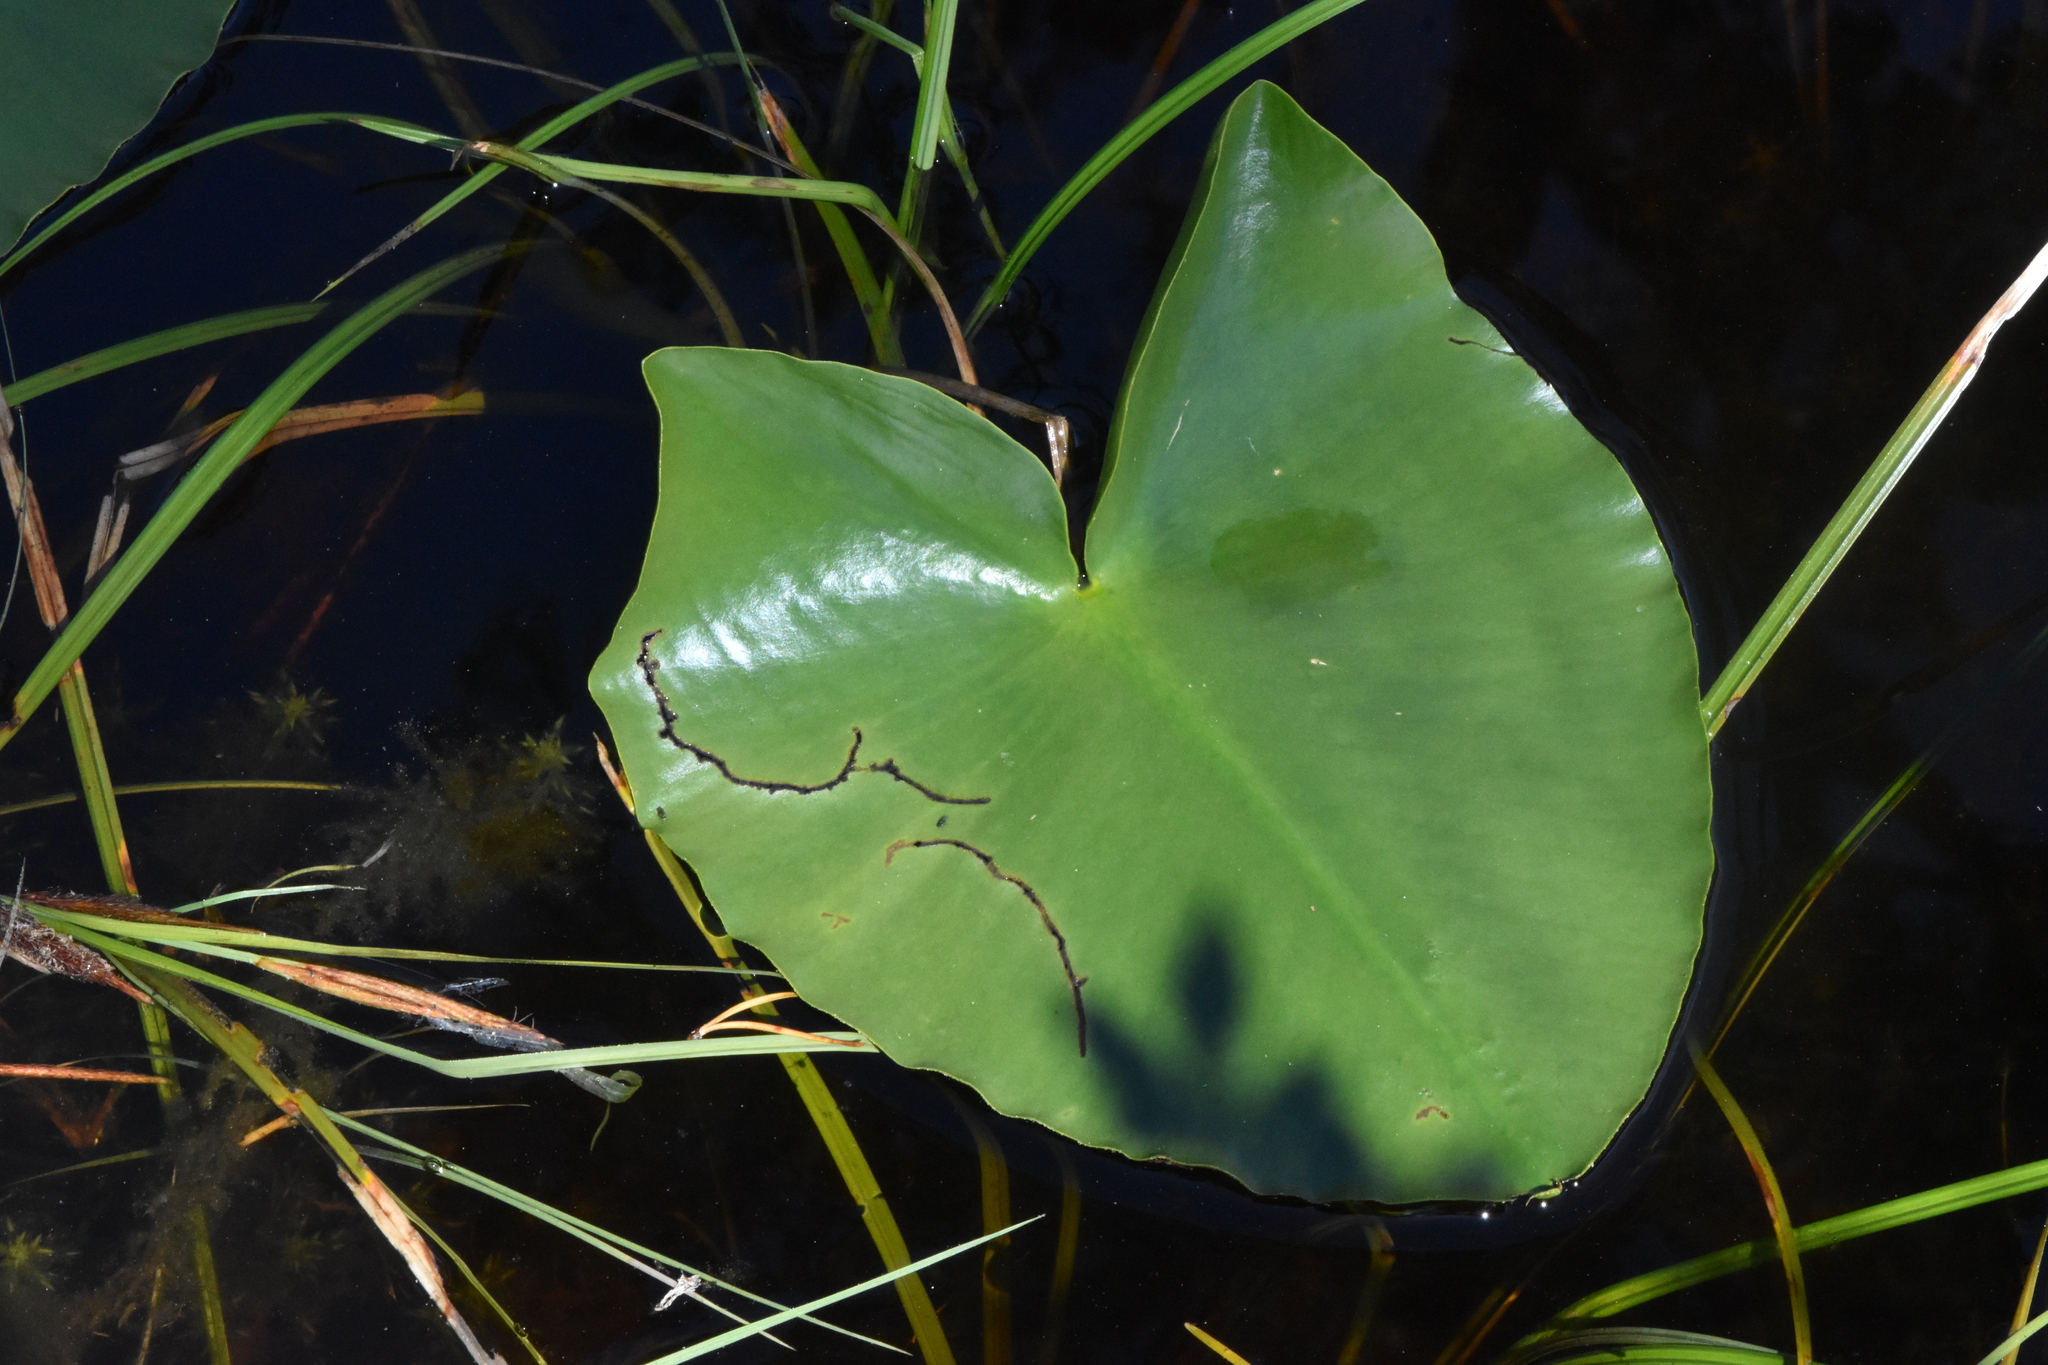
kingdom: Plantae
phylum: Tracheophyta
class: Magnoliopsida
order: Nymphaeales
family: Nymphaeaceae
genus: Nuphar
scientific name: Nuphar polysepala
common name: Rocky mountain cow-lily
